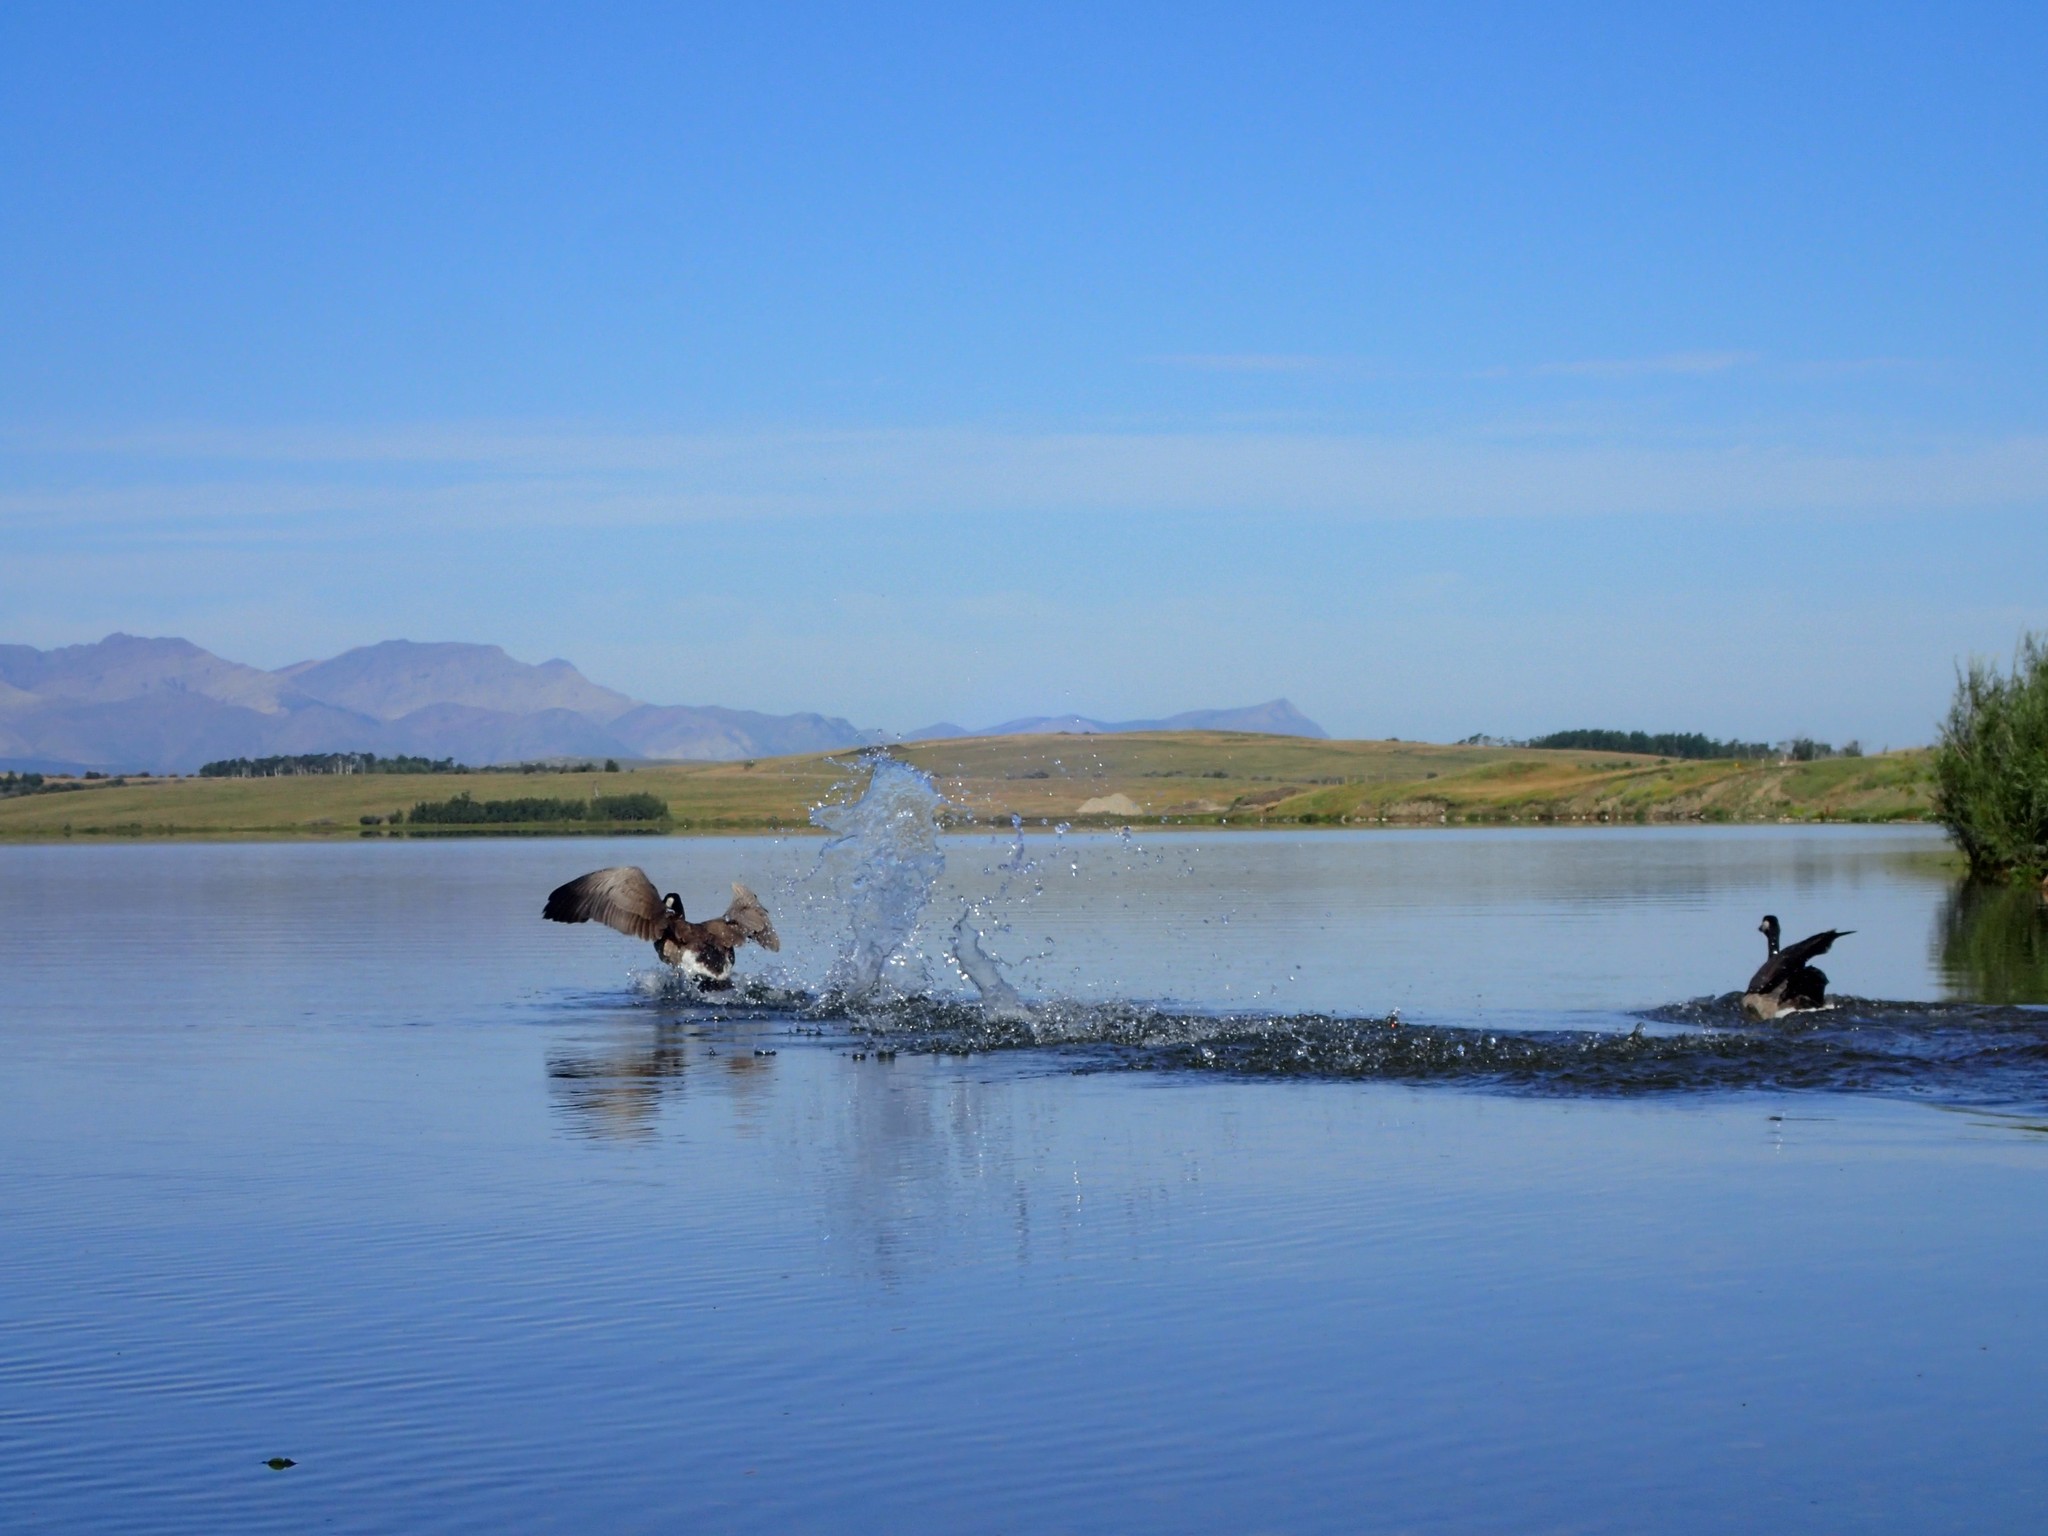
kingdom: Animalia
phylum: Chordata
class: Aves
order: Anseriformes
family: Anatidae
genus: Branta
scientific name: Branta canadensis
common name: Canada goose
